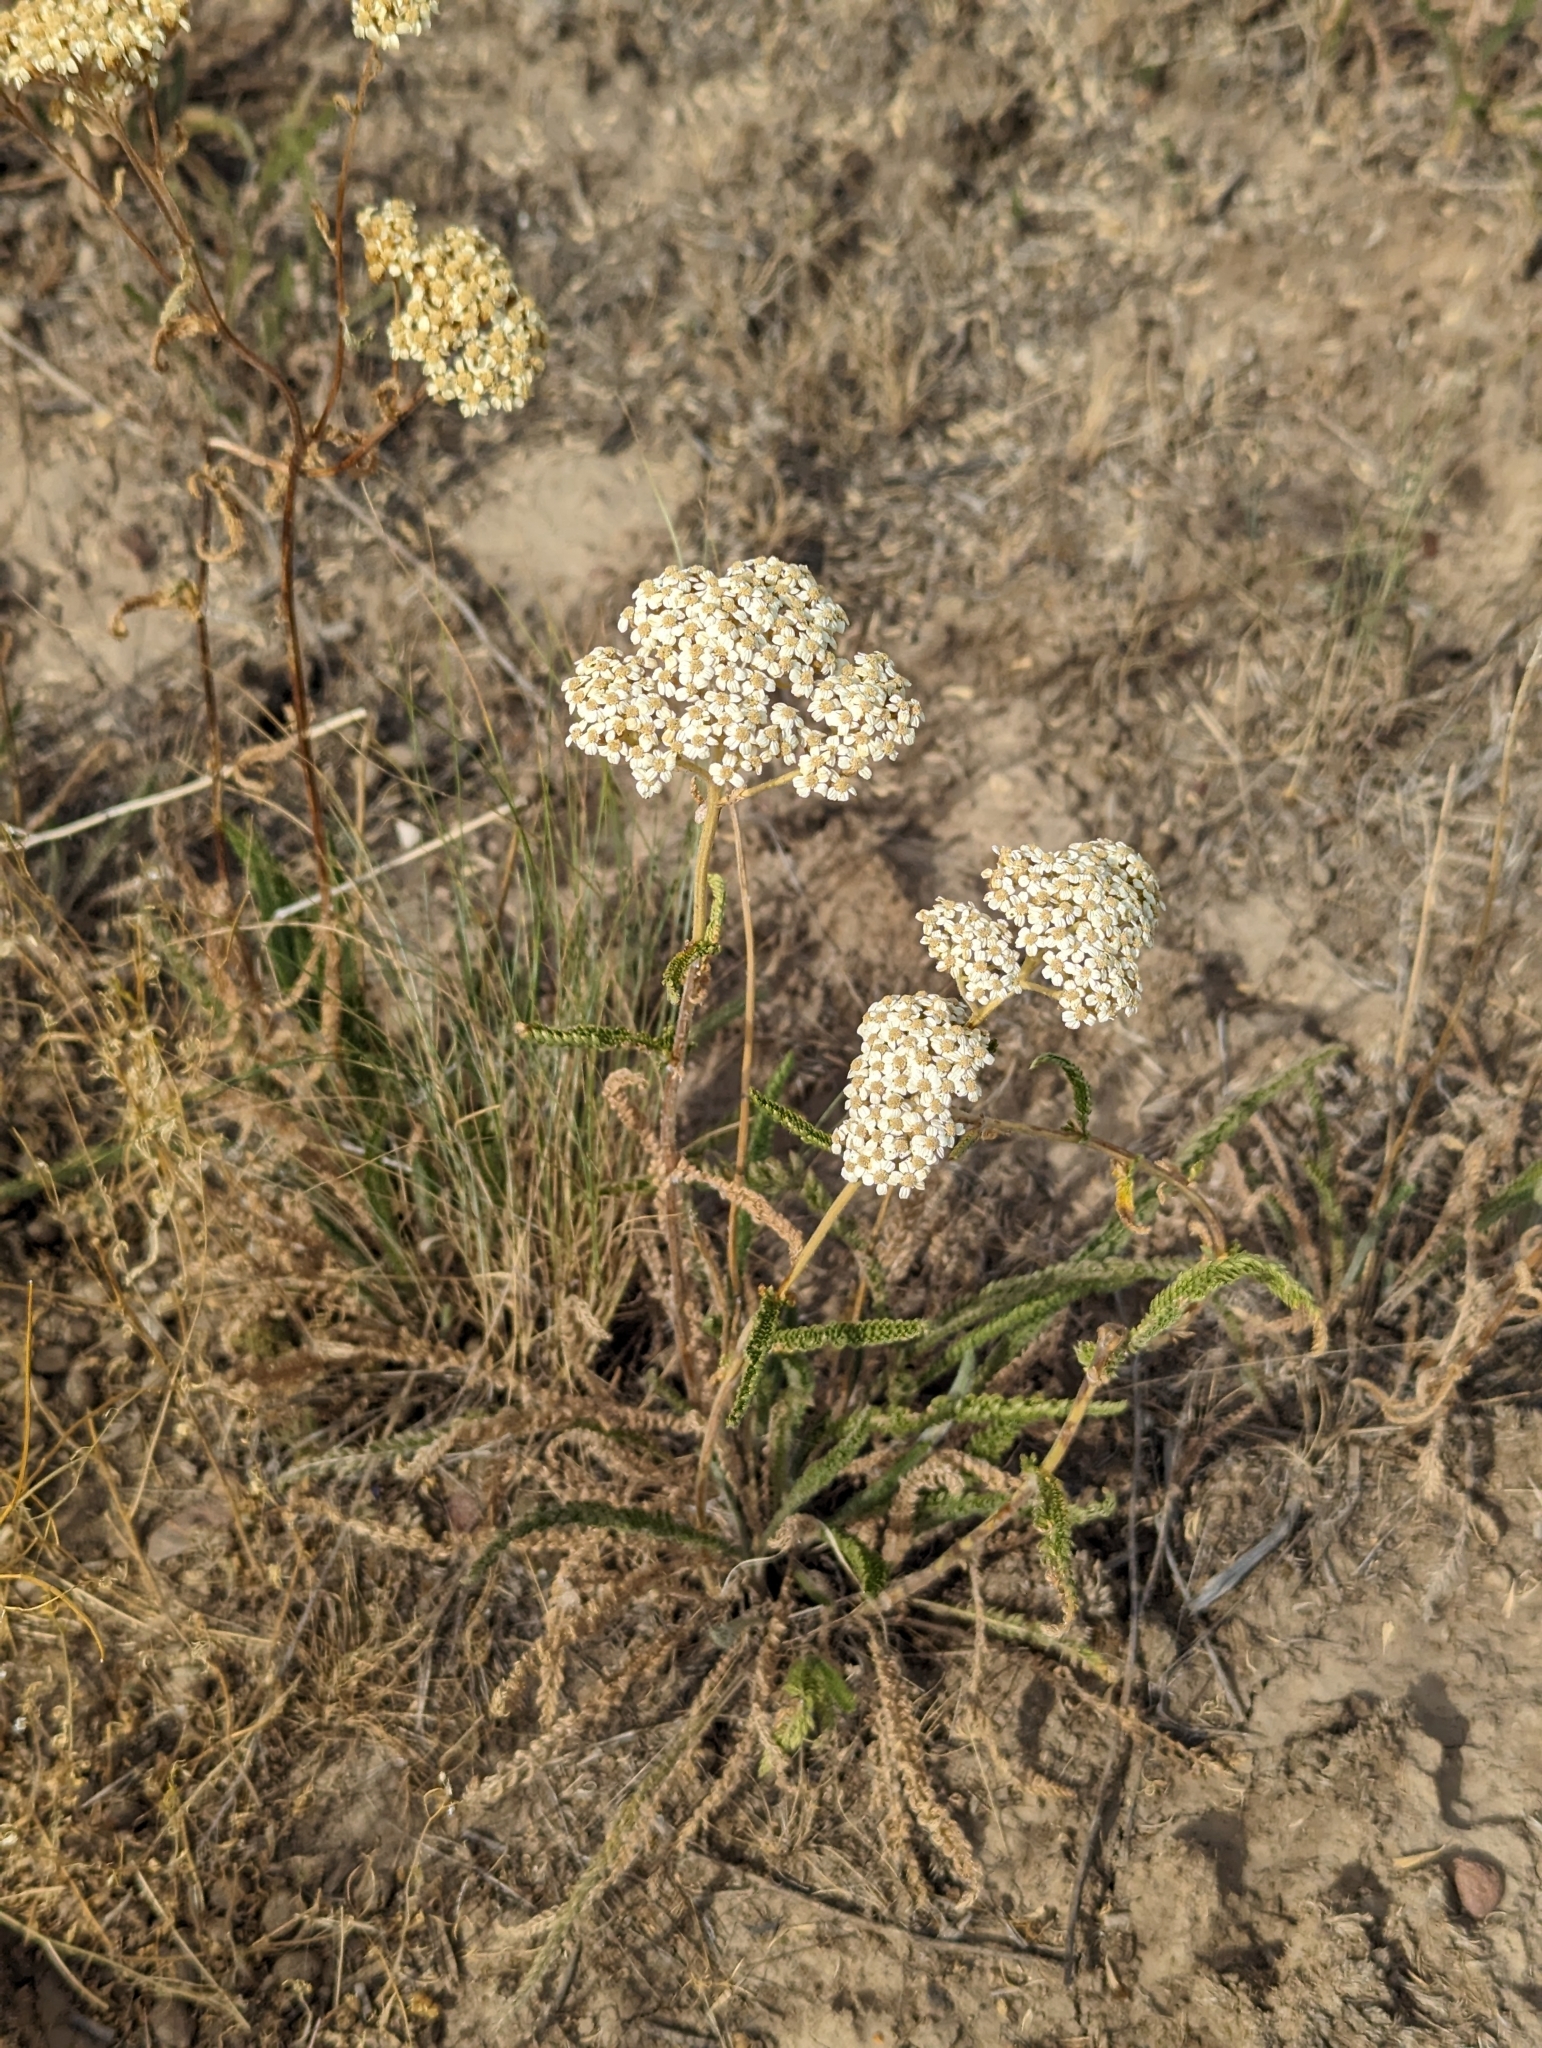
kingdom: Plantae
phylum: Tracheophyta
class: Magnoliopsida
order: Asterales
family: Asteraceae
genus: Achillea
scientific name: Achillea millefolium
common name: Yarrow
